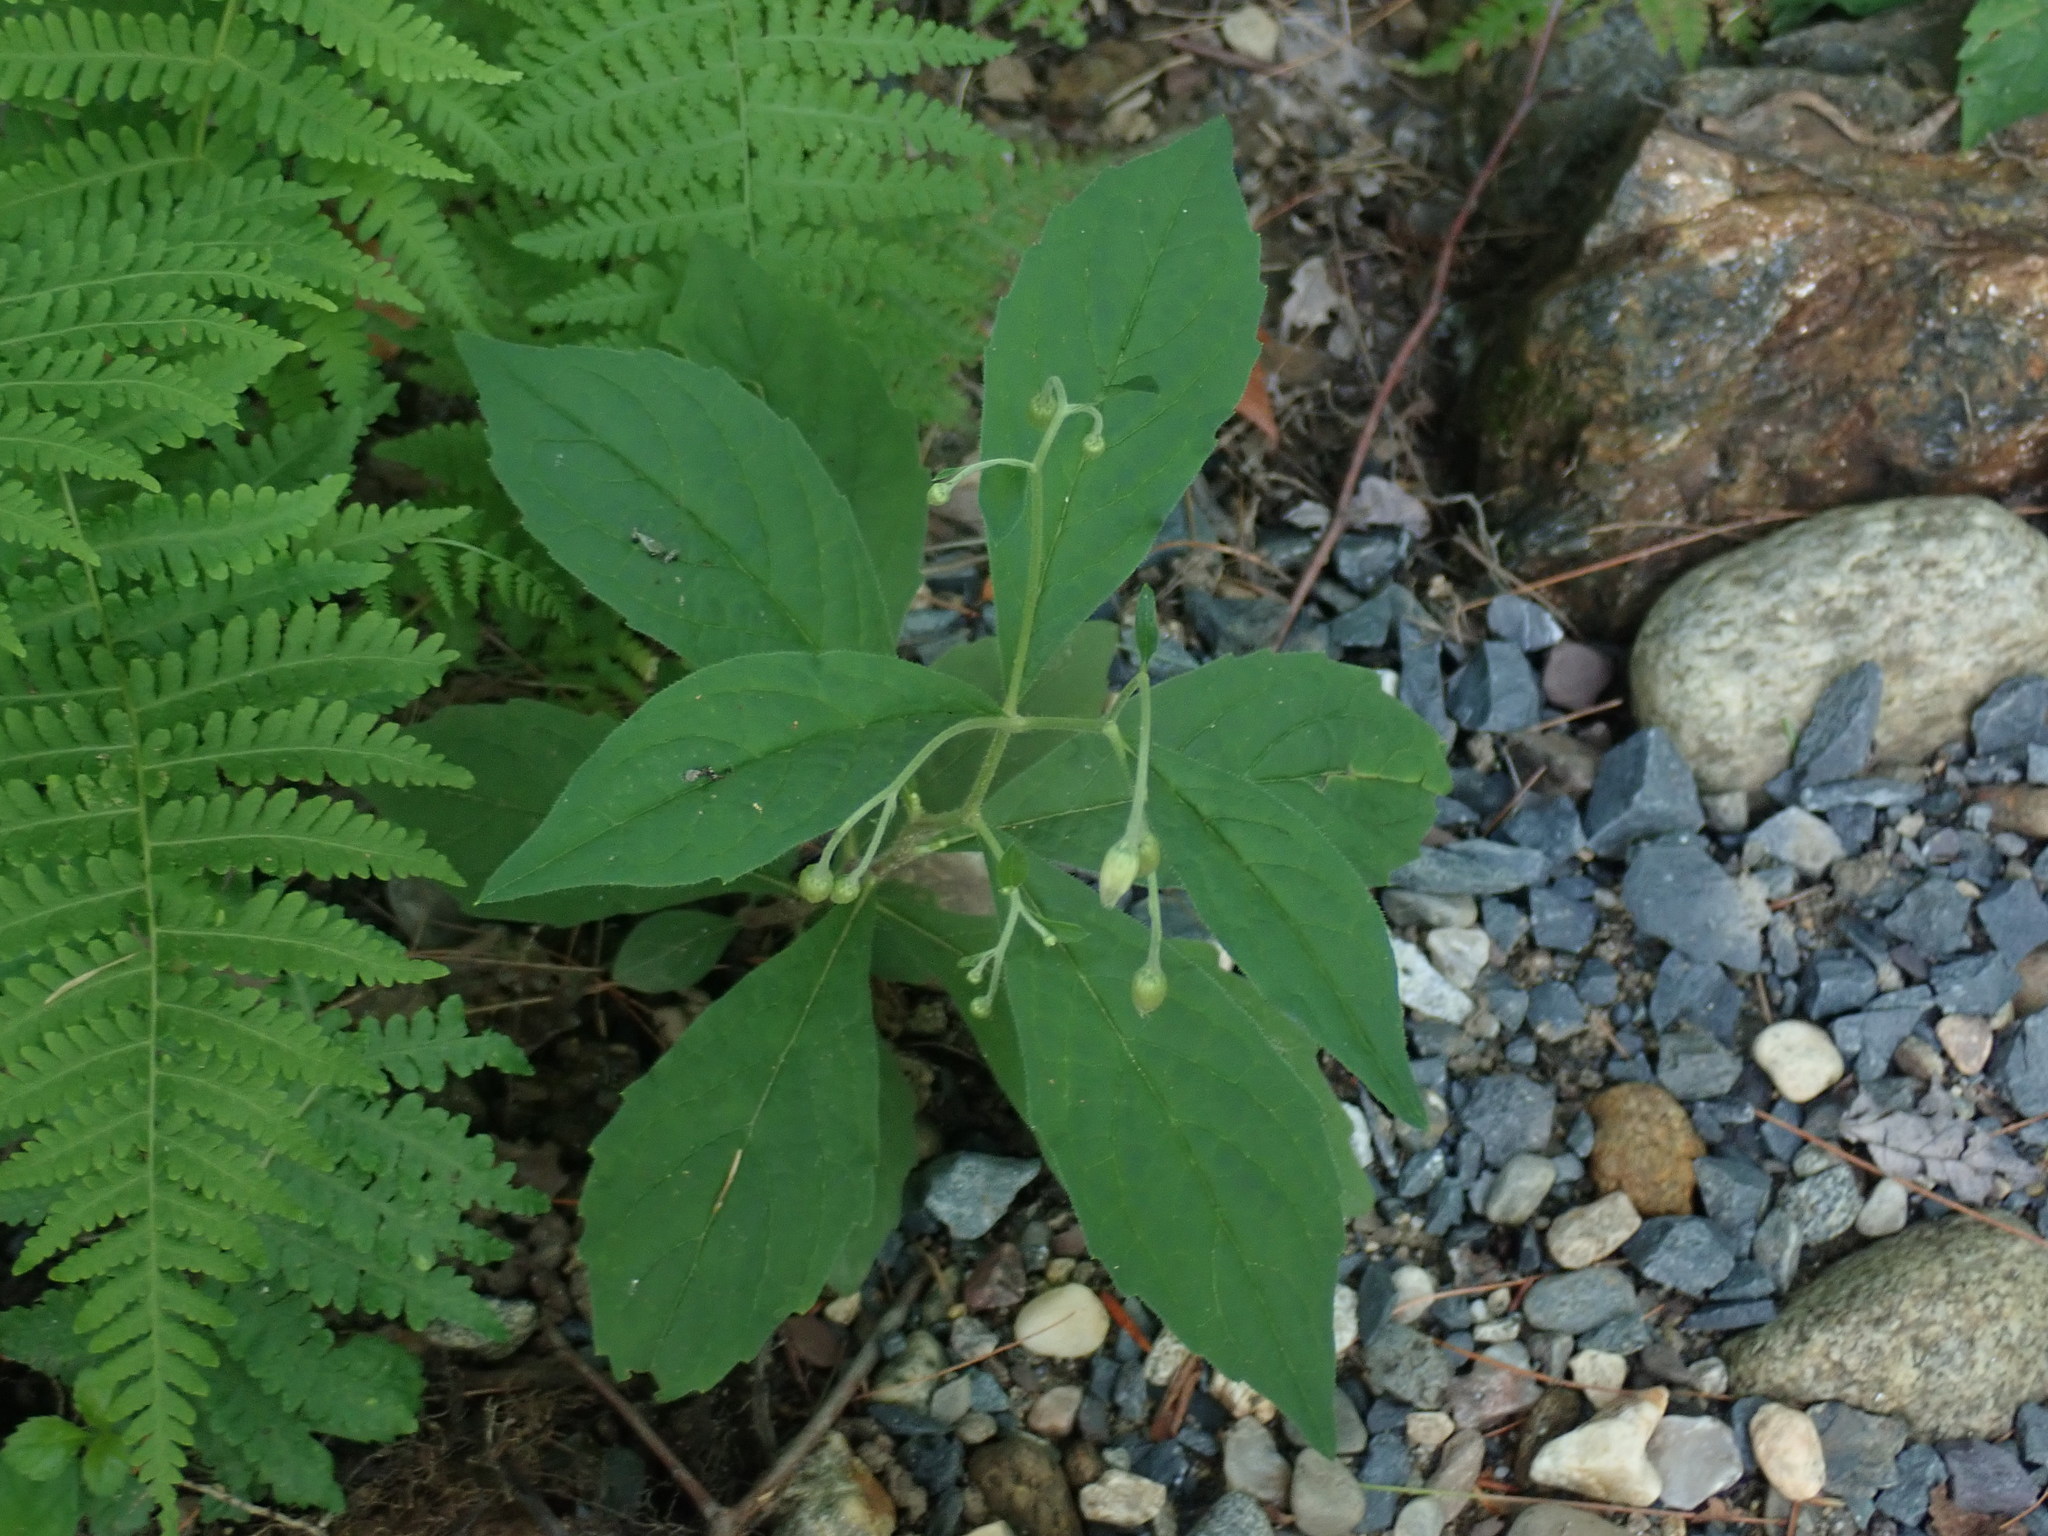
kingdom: Plantae
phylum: Tracheophyta
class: Magnoliopsida
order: Asterales
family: Asteraceae
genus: Oclemena
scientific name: Oclemena acuminata
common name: Mountain aster
